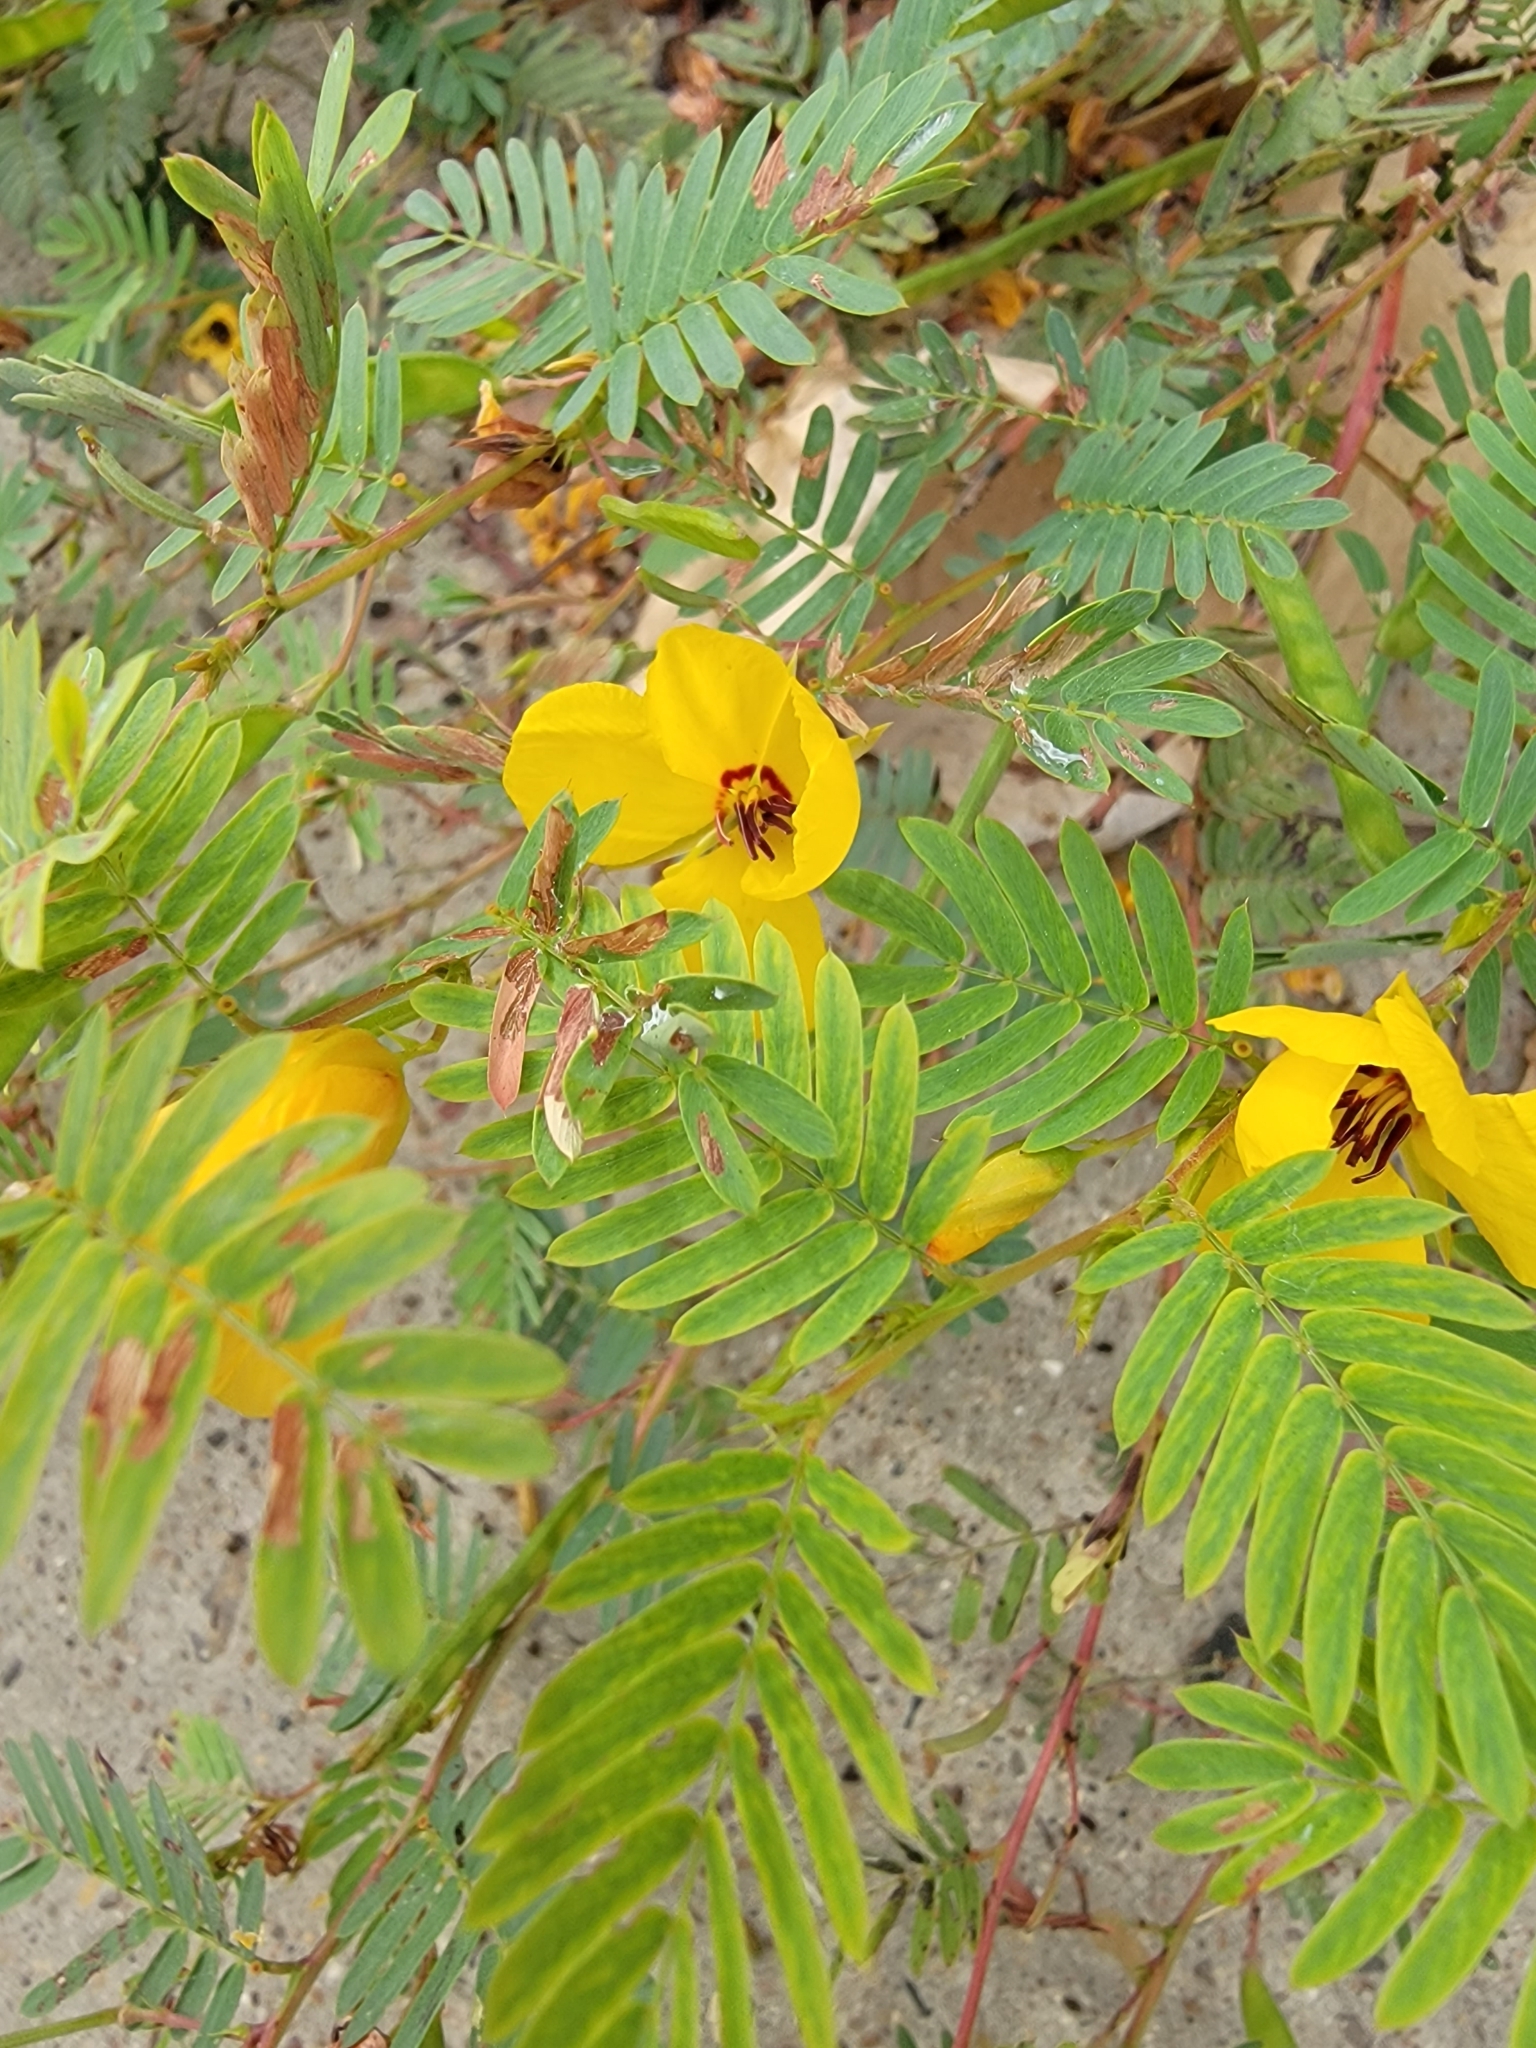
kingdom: Plantae
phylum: Tracheophyta
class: Magnoliopsida
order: Fabales
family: Fabaceae
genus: Chamaecrista
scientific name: Chamaecrista fasciculata
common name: Golden cassia
